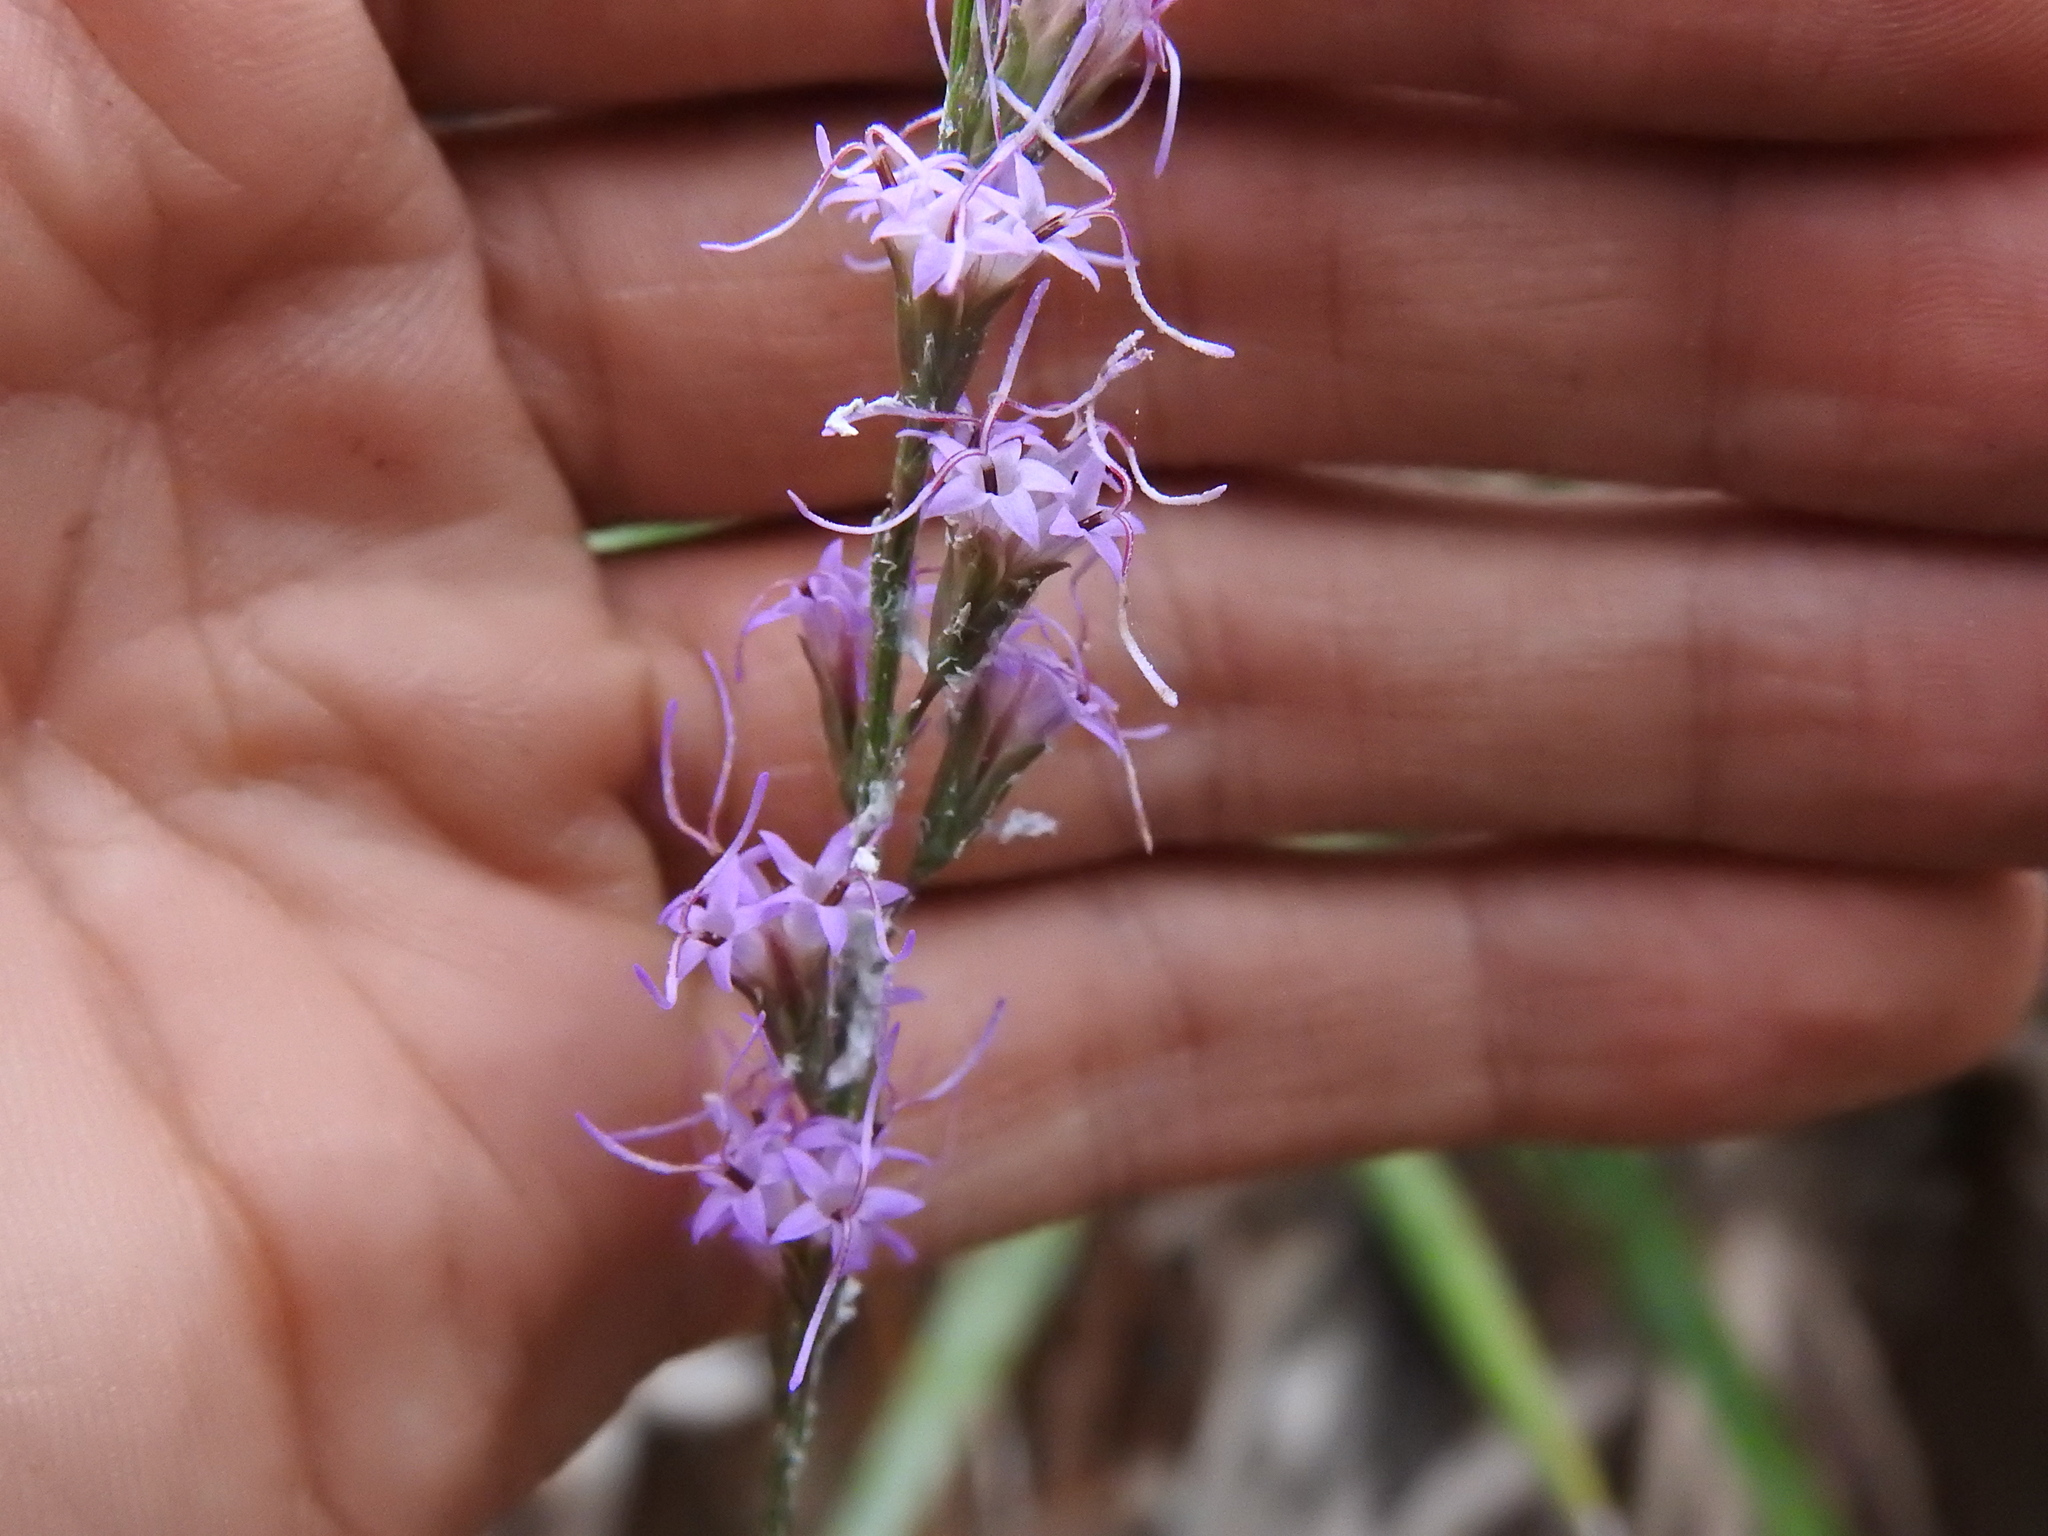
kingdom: Plantae
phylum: Tracheophyta
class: Magnoliopsida
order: Asterales
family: Asteraceae
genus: Liatris
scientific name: Liatris quadriflora
